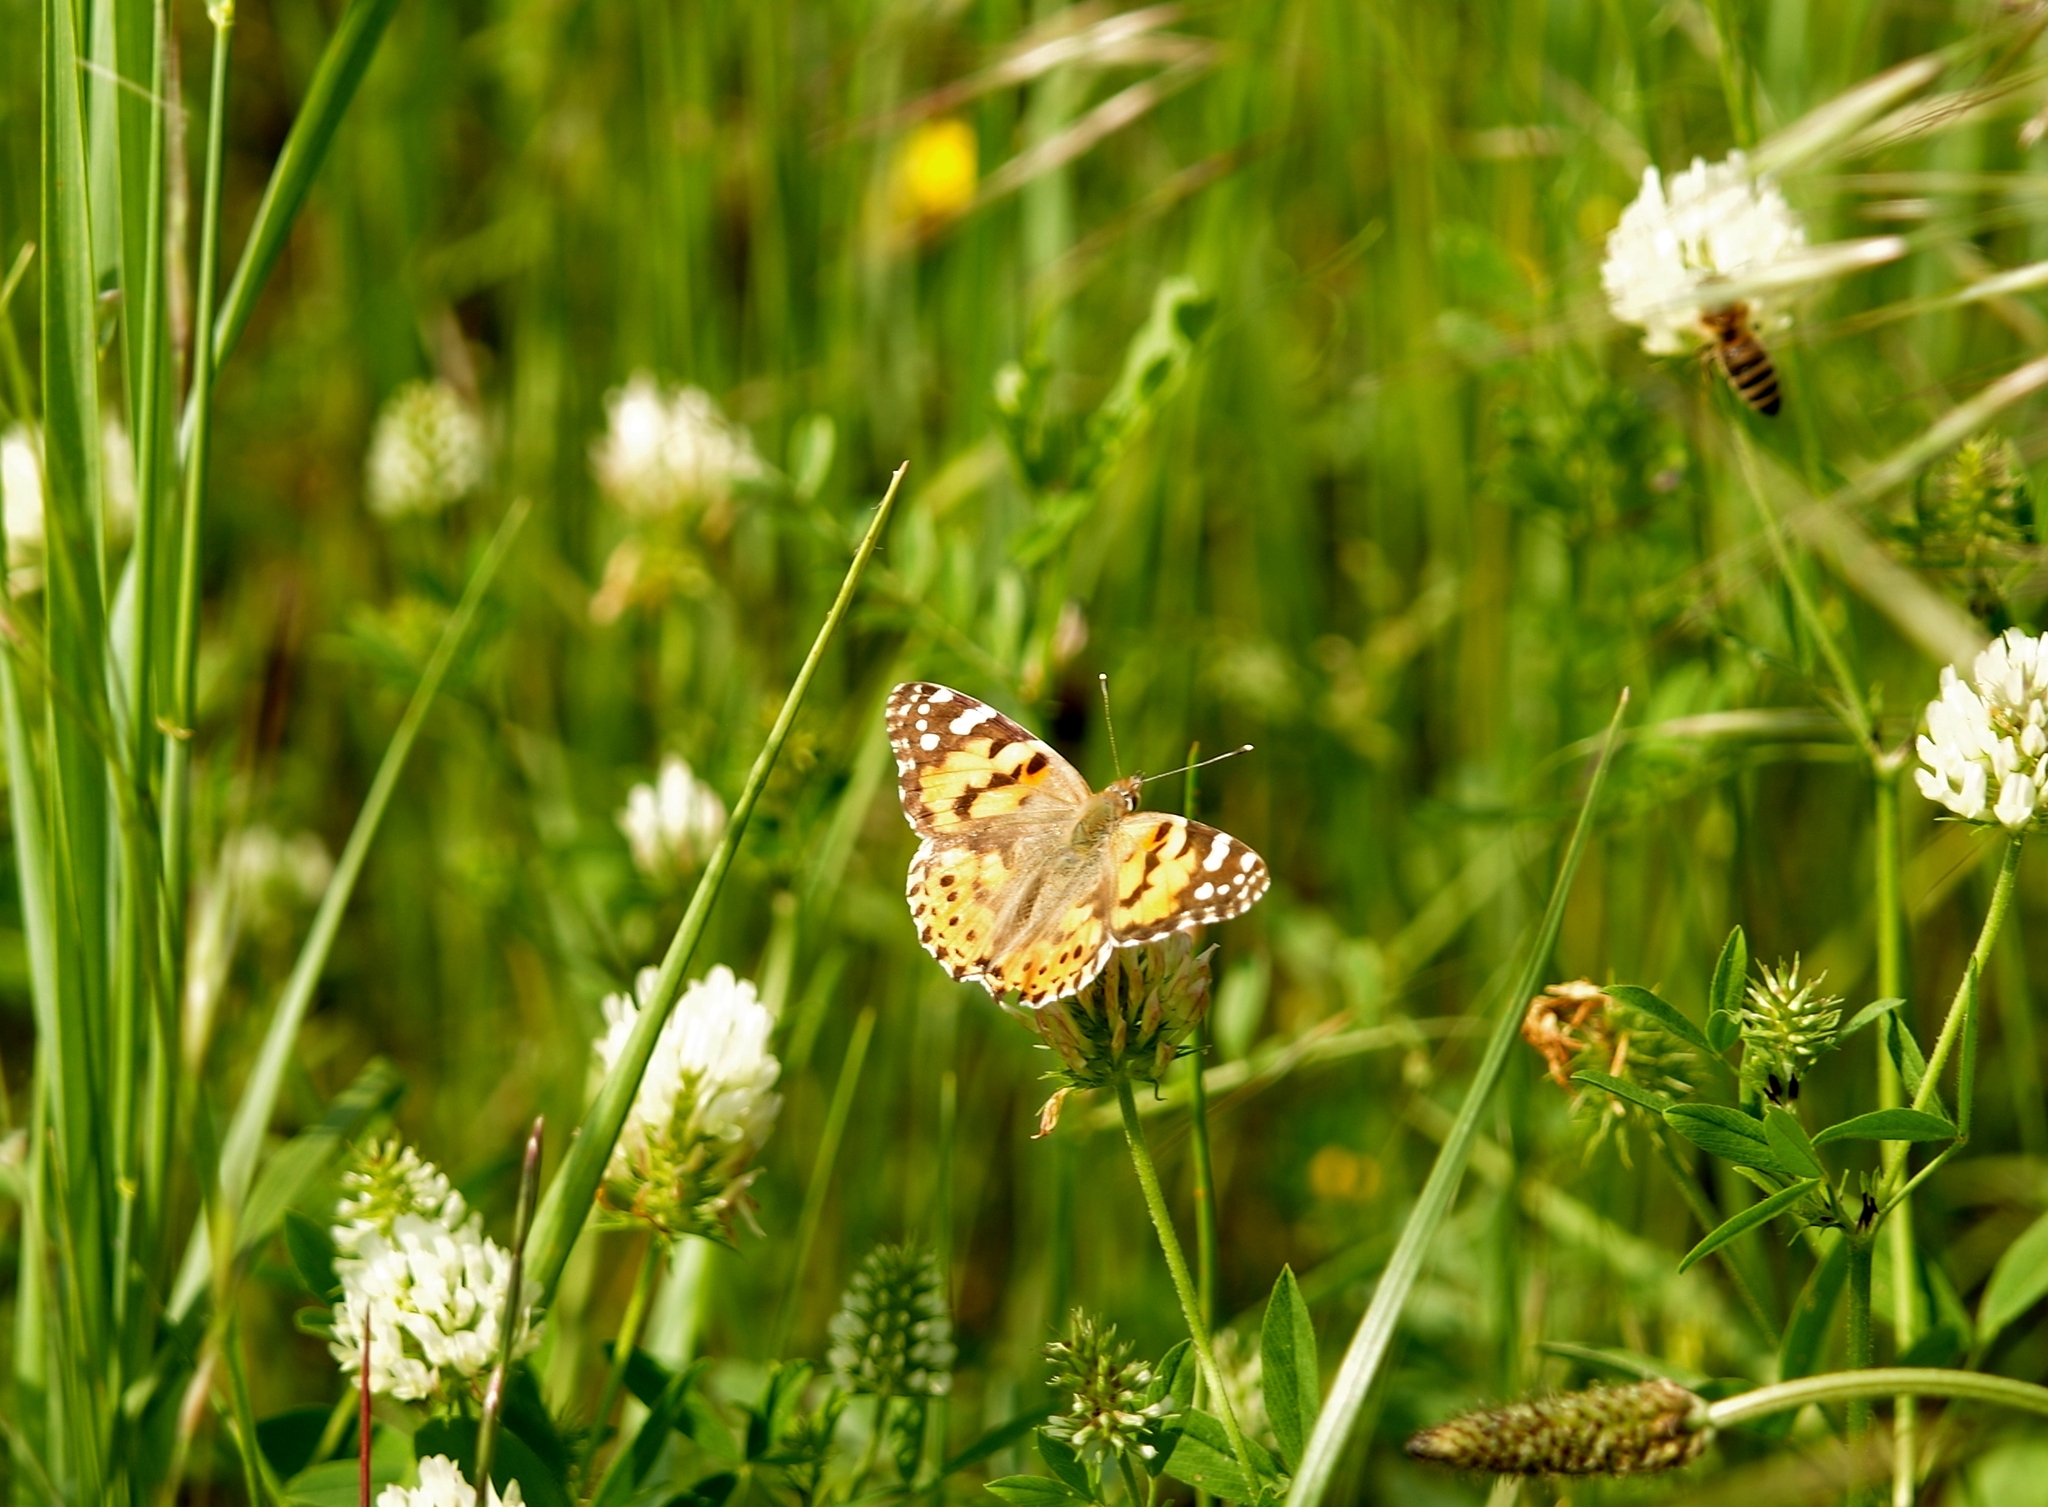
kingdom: Animalia
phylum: Arthropoda
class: Insecta
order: Lepidoptera
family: Nymphalidae
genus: Vanessa
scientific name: Vanessa cardui
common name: Painted lady
